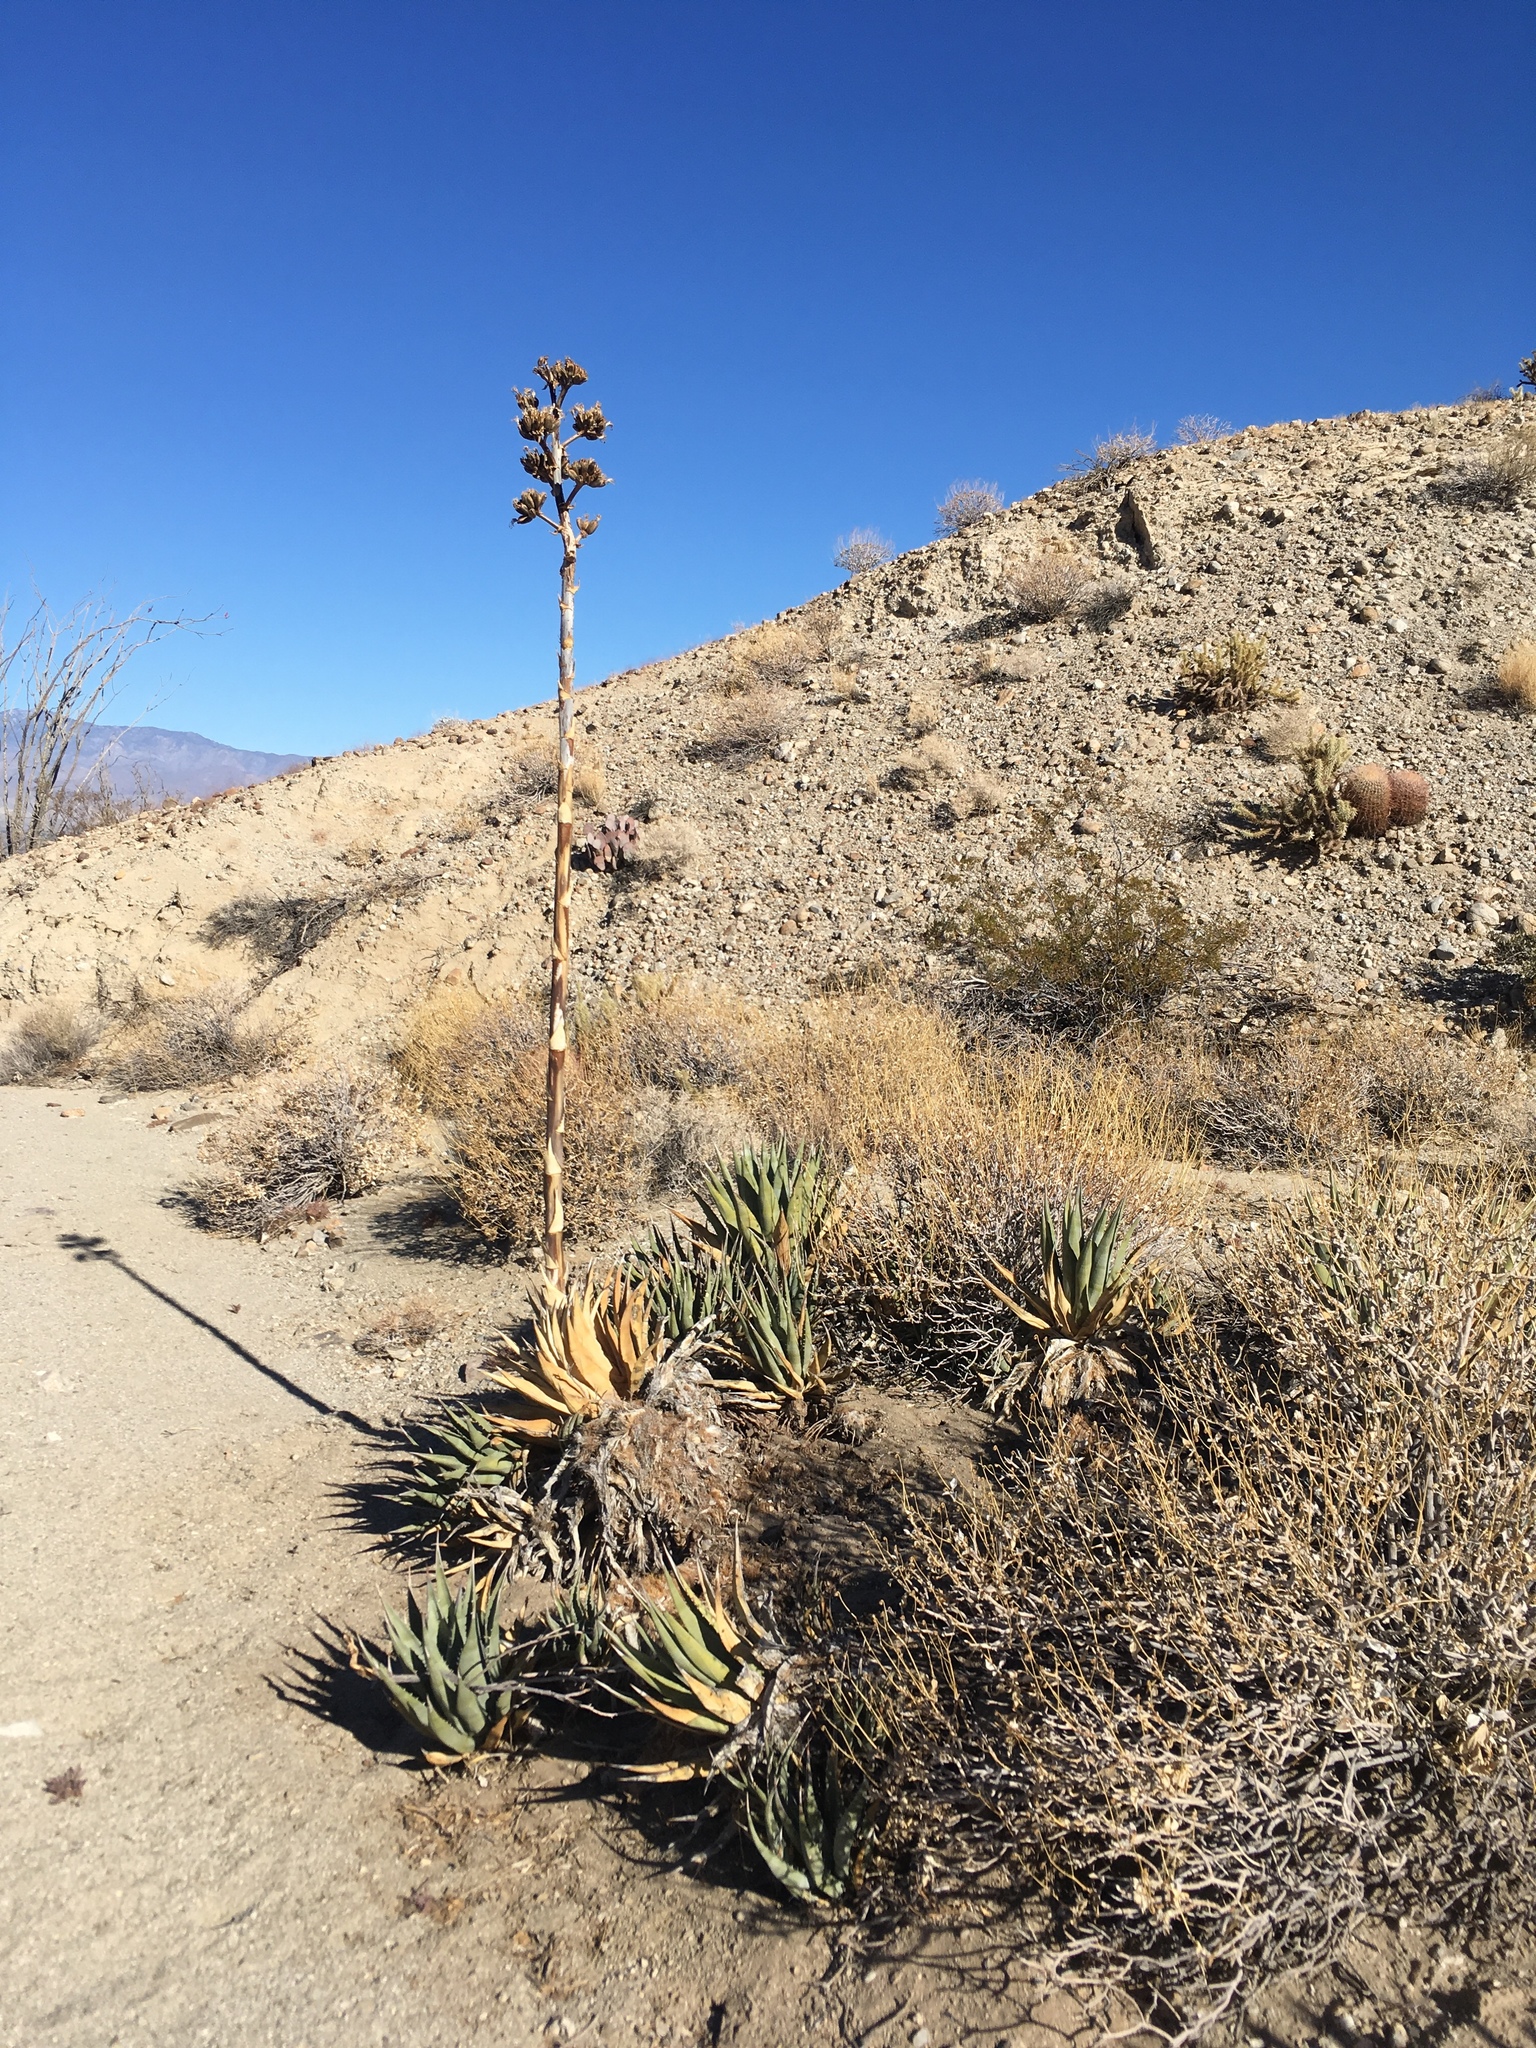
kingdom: Plantae
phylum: Tracheophyta
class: Liliopsida
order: Asparagales
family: Asparagaceae
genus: Agave
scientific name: Agave deserti
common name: Desert agave
